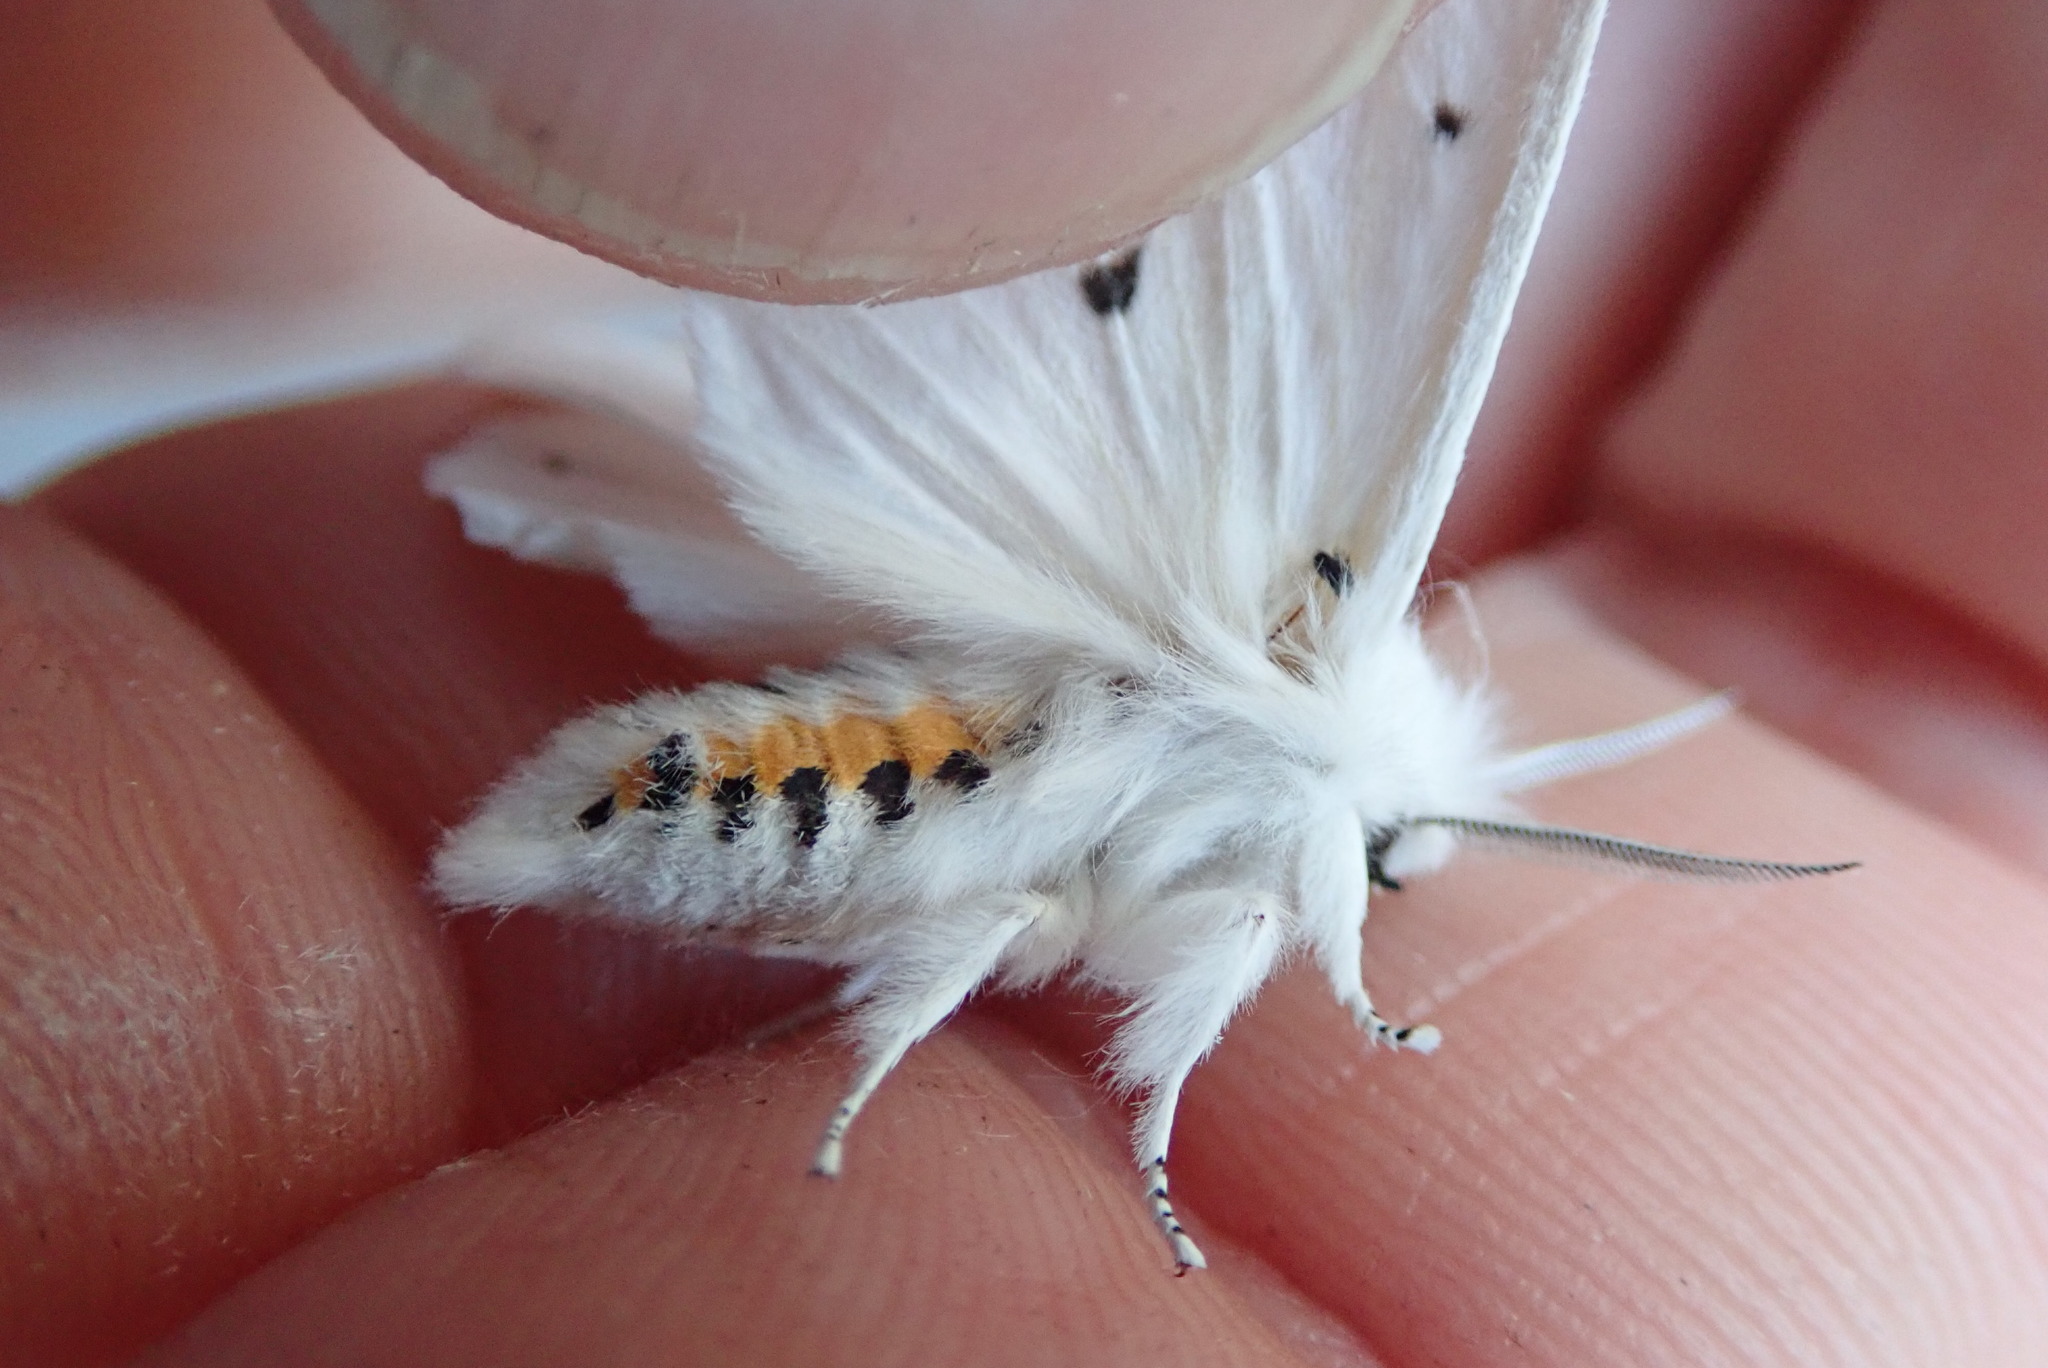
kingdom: Animalia
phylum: Arthropoda
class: Insecta
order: Lepidoptera
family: Erebidae
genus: Spilosoma
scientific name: Spilosoma virginica
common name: Virginia tiger moth
